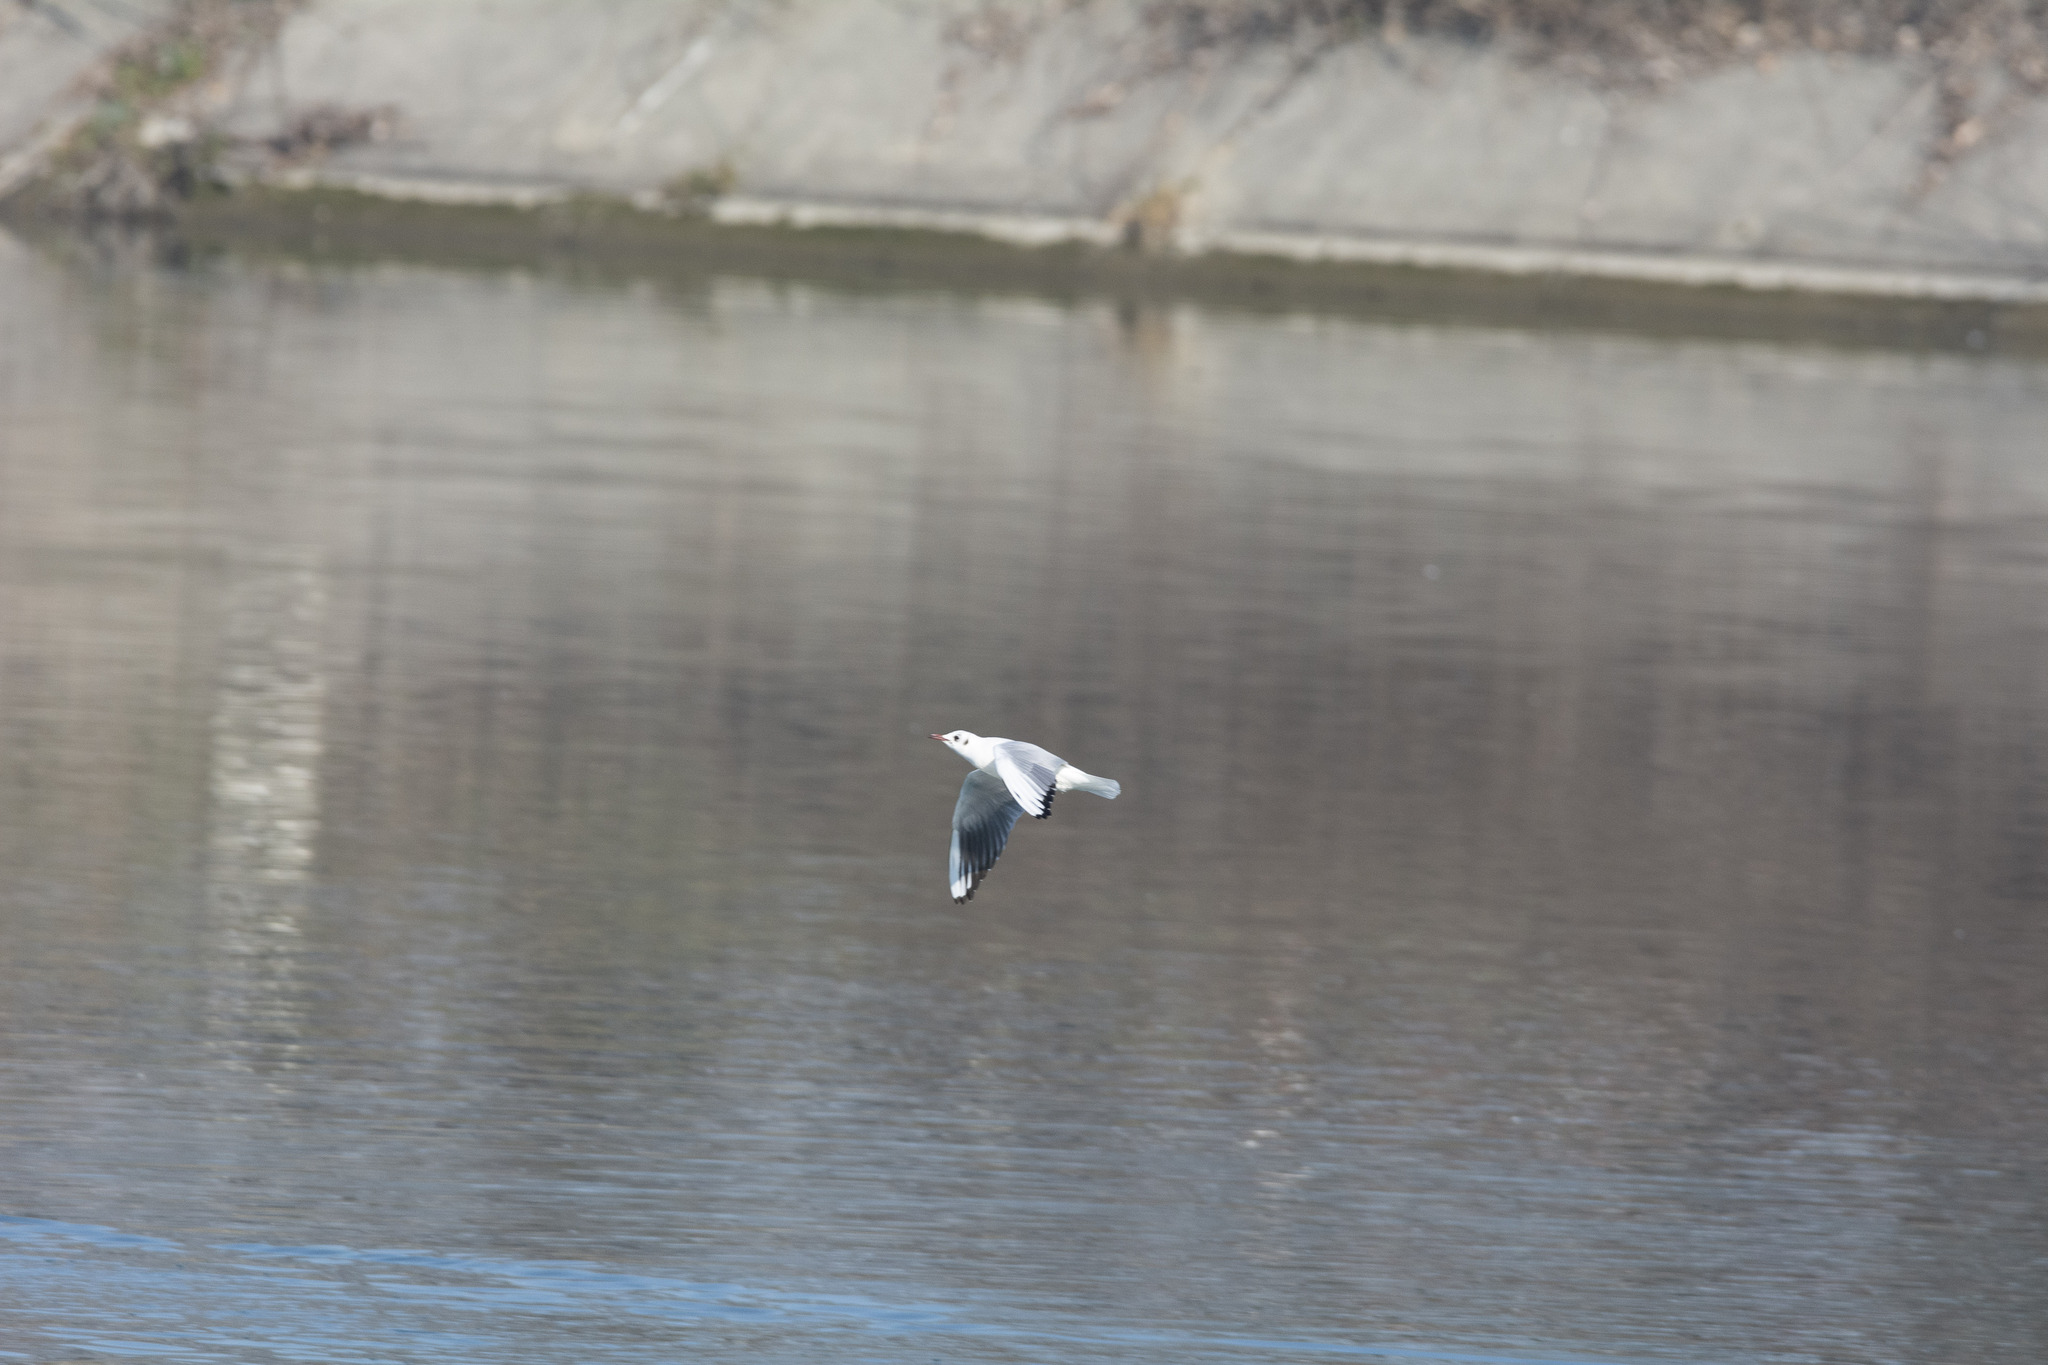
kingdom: Animalia
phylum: Chordata
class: Aves
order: Charadriiformes
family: Laridae
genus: Chroicocephalus
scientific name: Chroicocephalus ridibundus
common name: Black-headed gull
